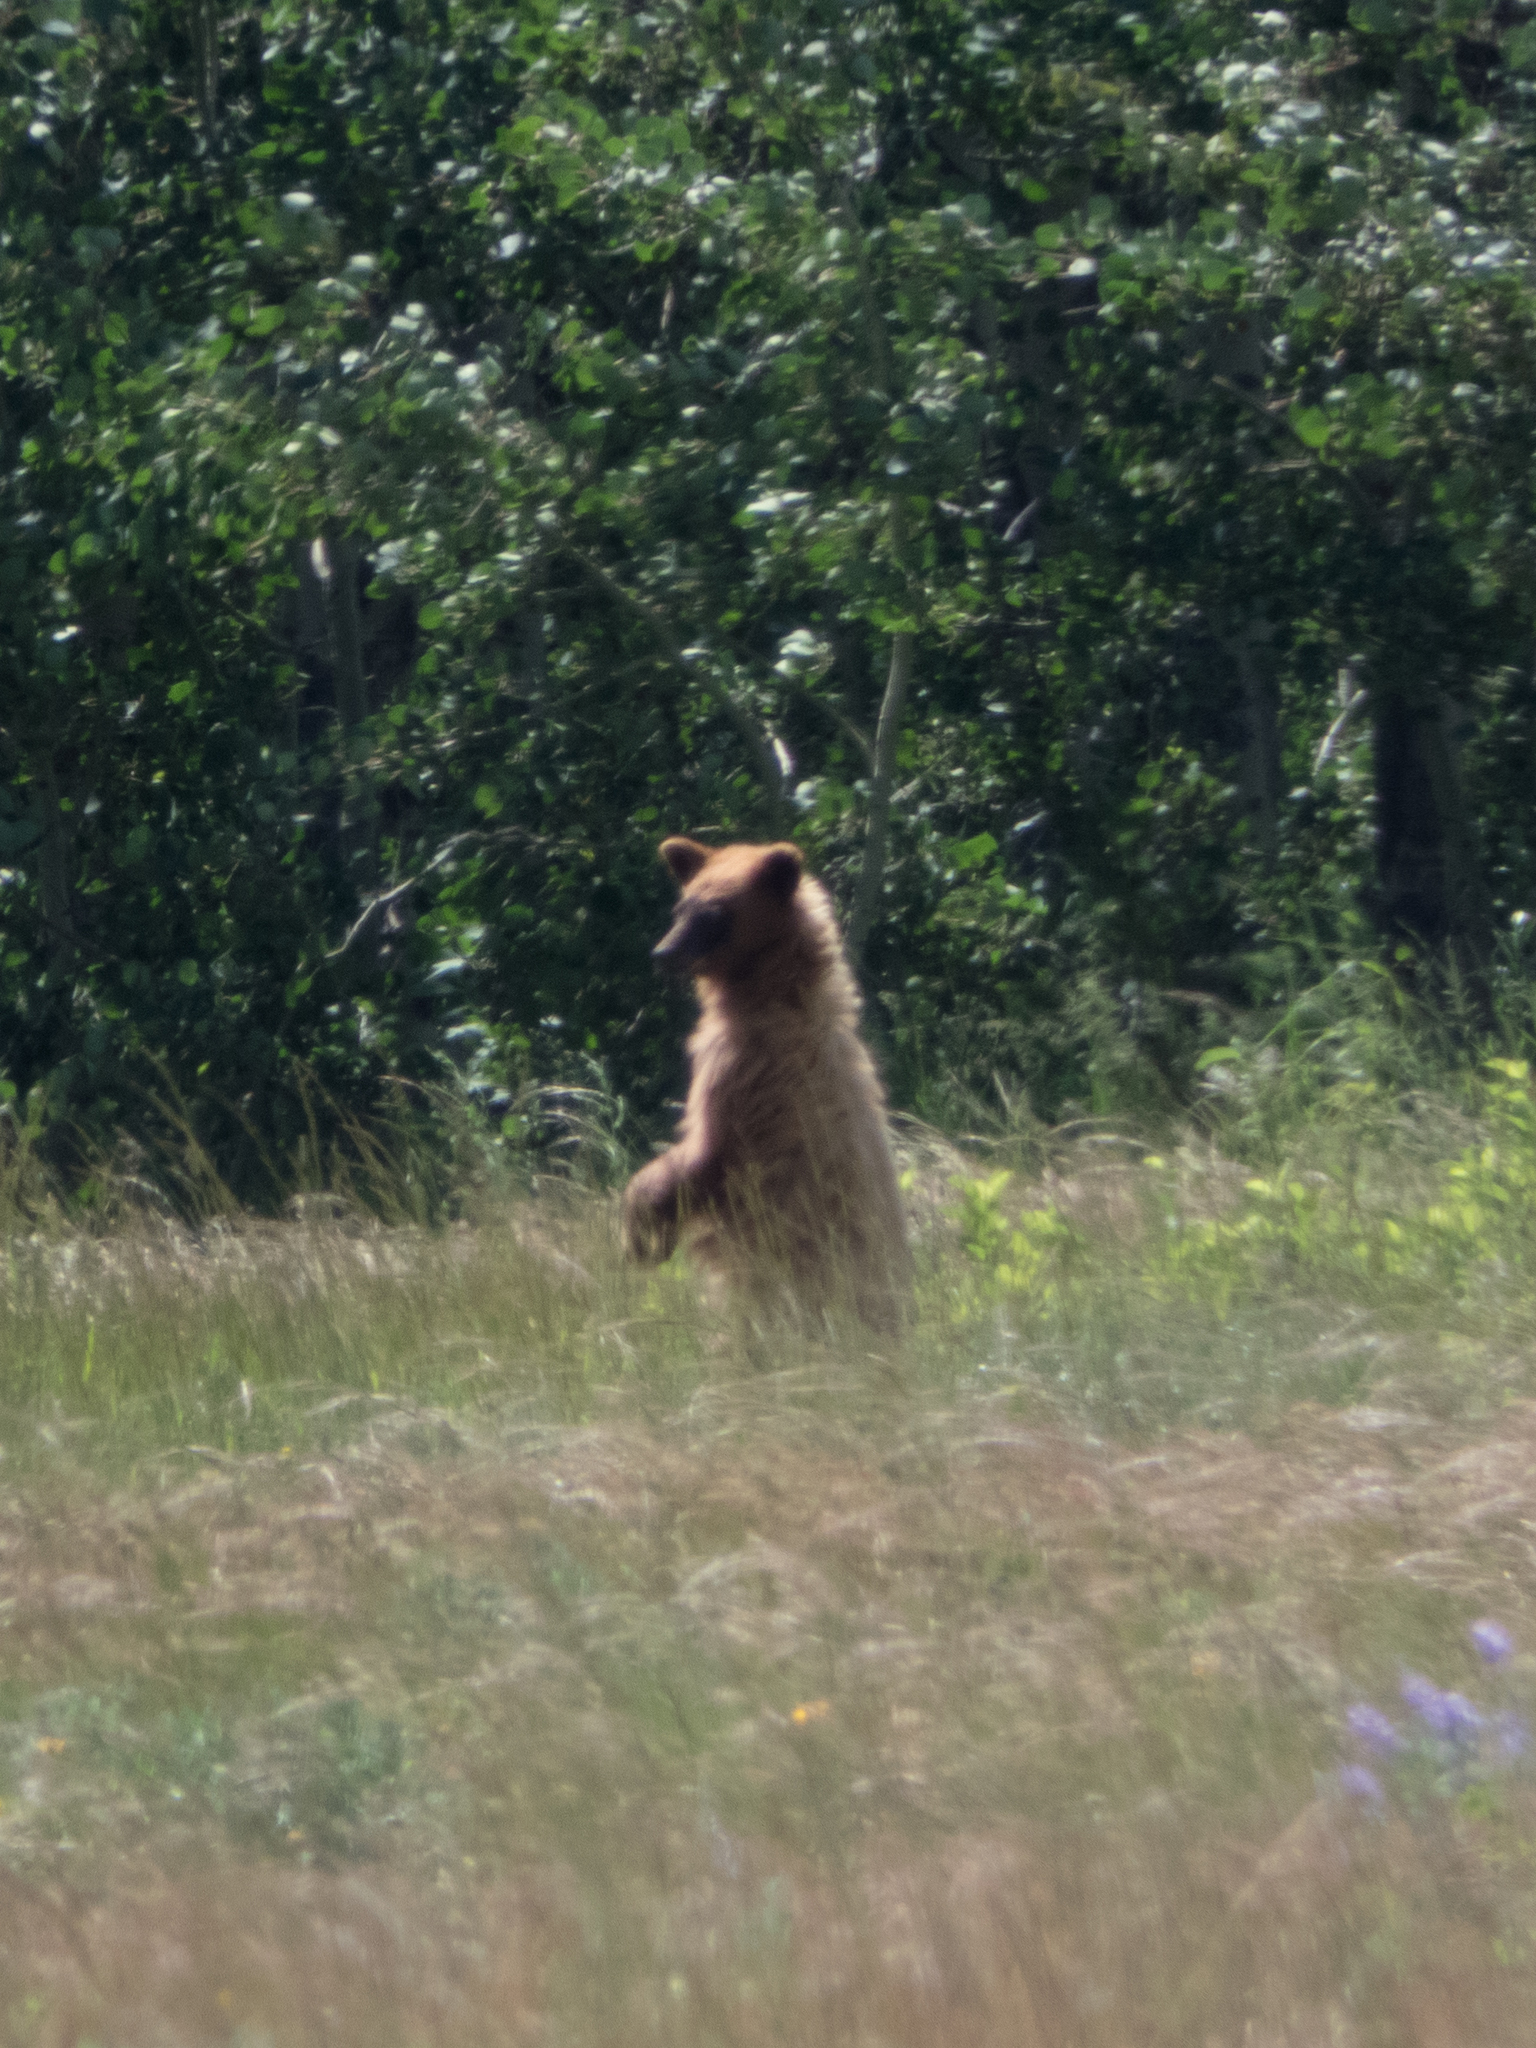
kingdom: Animalia
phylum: Chordata
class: Mammalia
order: Carnivora
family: Ursidae
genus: Ursus
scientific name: Ursus americanus
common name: American black bear
